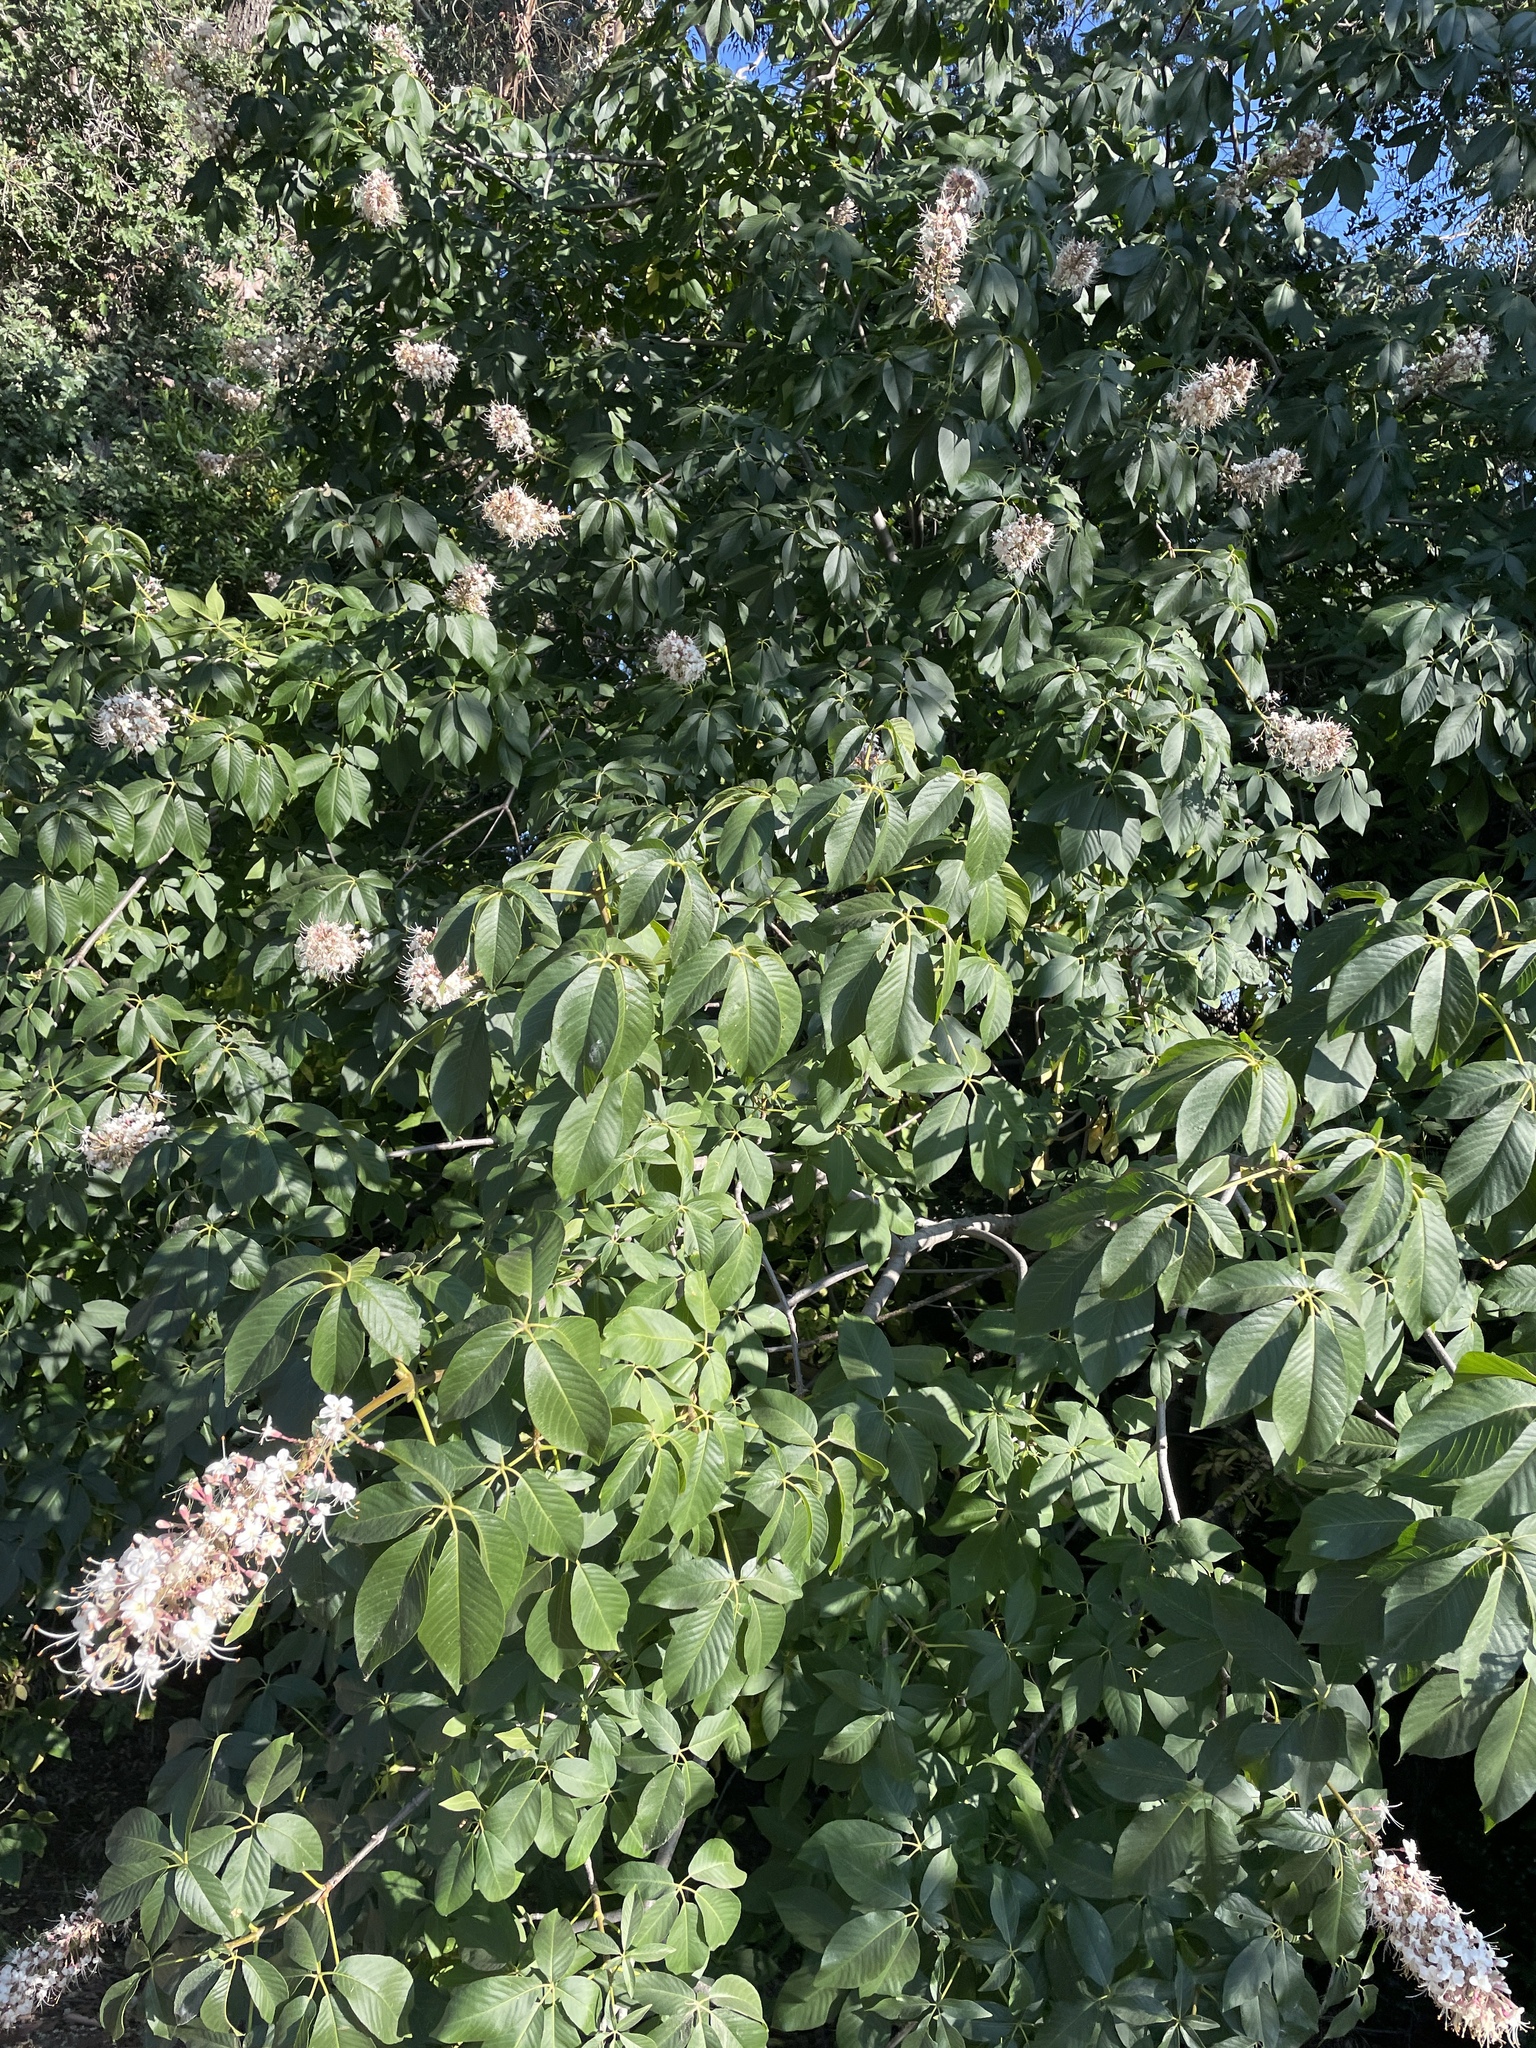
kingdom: Plantae
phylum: Tracheophyta
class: Magnoliopsida
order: Sapindales
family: Sapindaceae
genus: Aesculus
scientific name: Aesculus californica
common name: California buckeye
